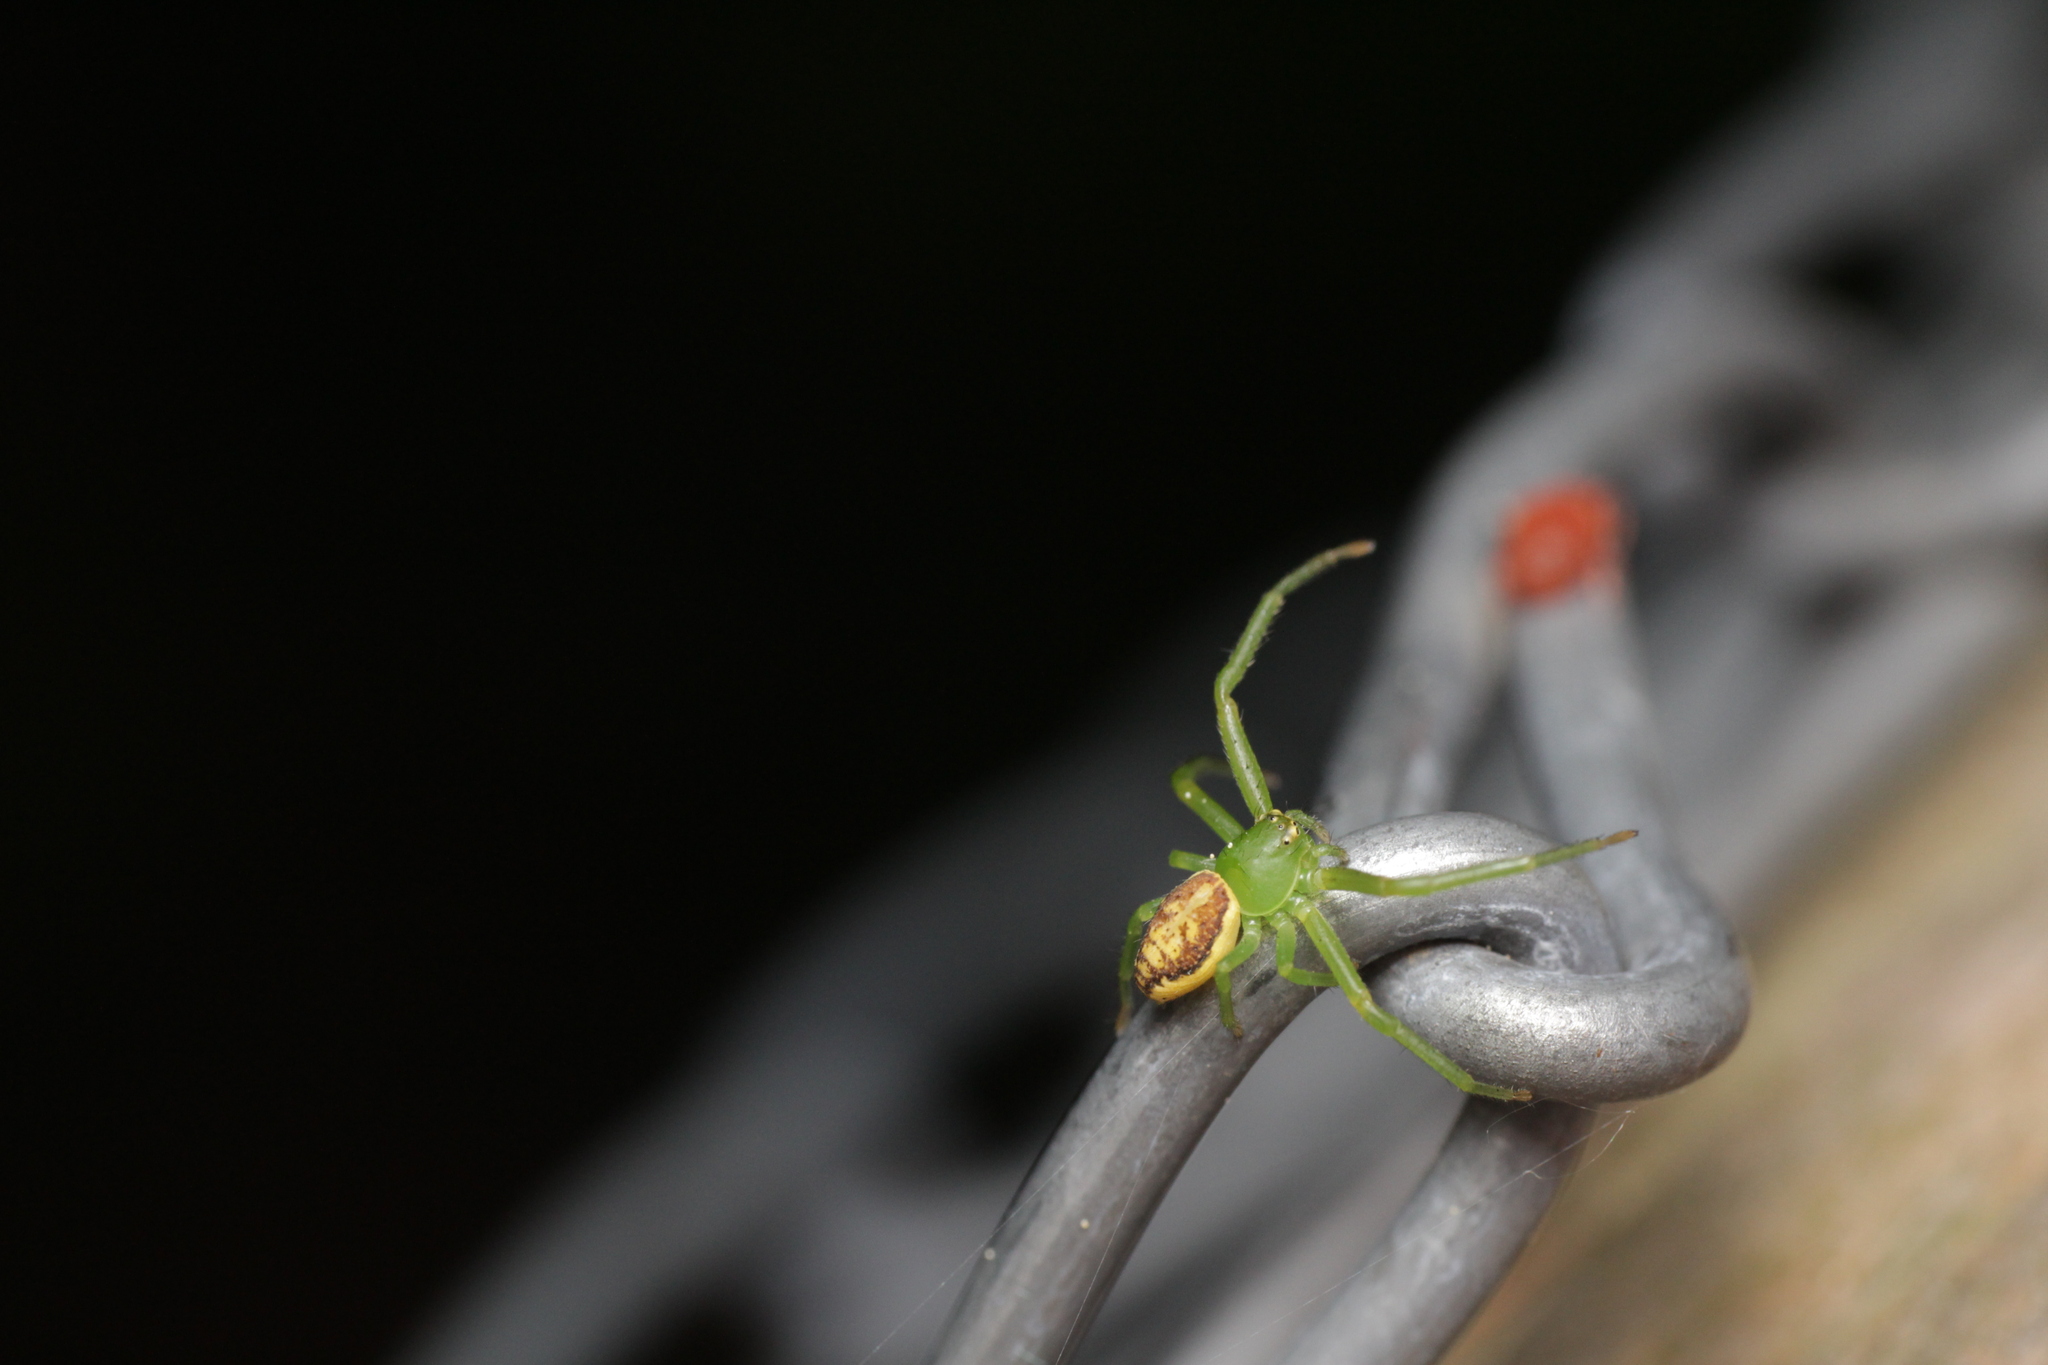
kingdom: Animalia
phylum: Arthropoda
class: Arachnida
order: Araneae
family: Thomisidae
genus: Diaea
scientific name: Diaea dorsata
